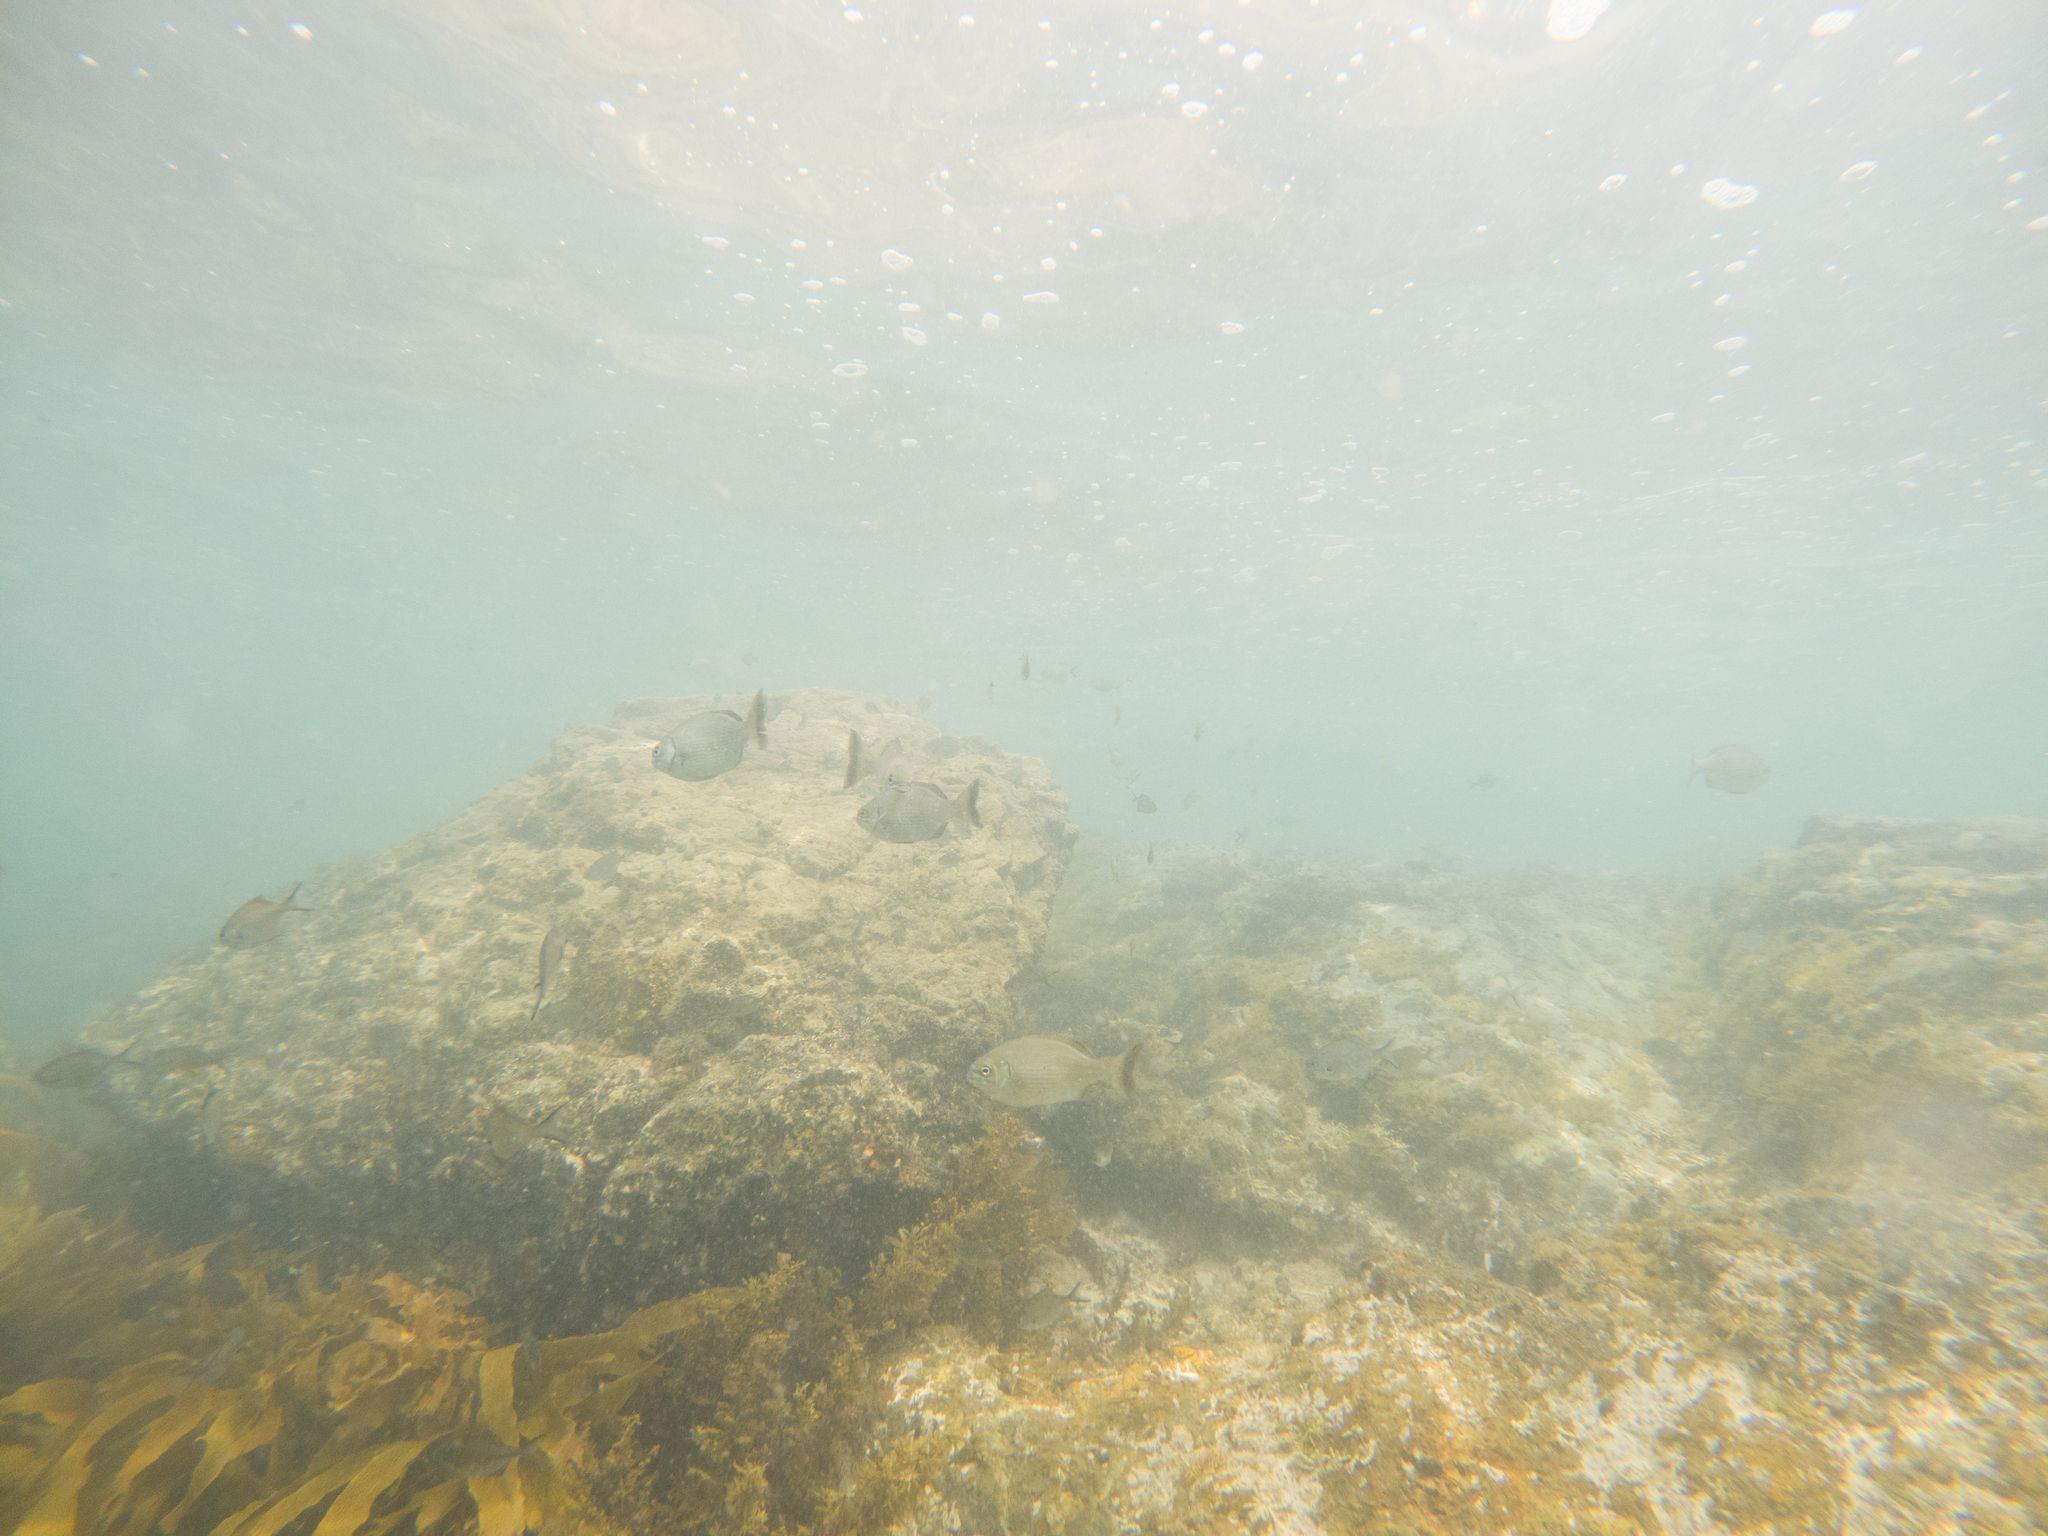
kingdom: Animalia
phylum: Chordata
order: Perciformes
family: Kyphosidae
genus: Kyphosus
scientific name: Kyphosus sydneyanus
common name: Silver drummer
